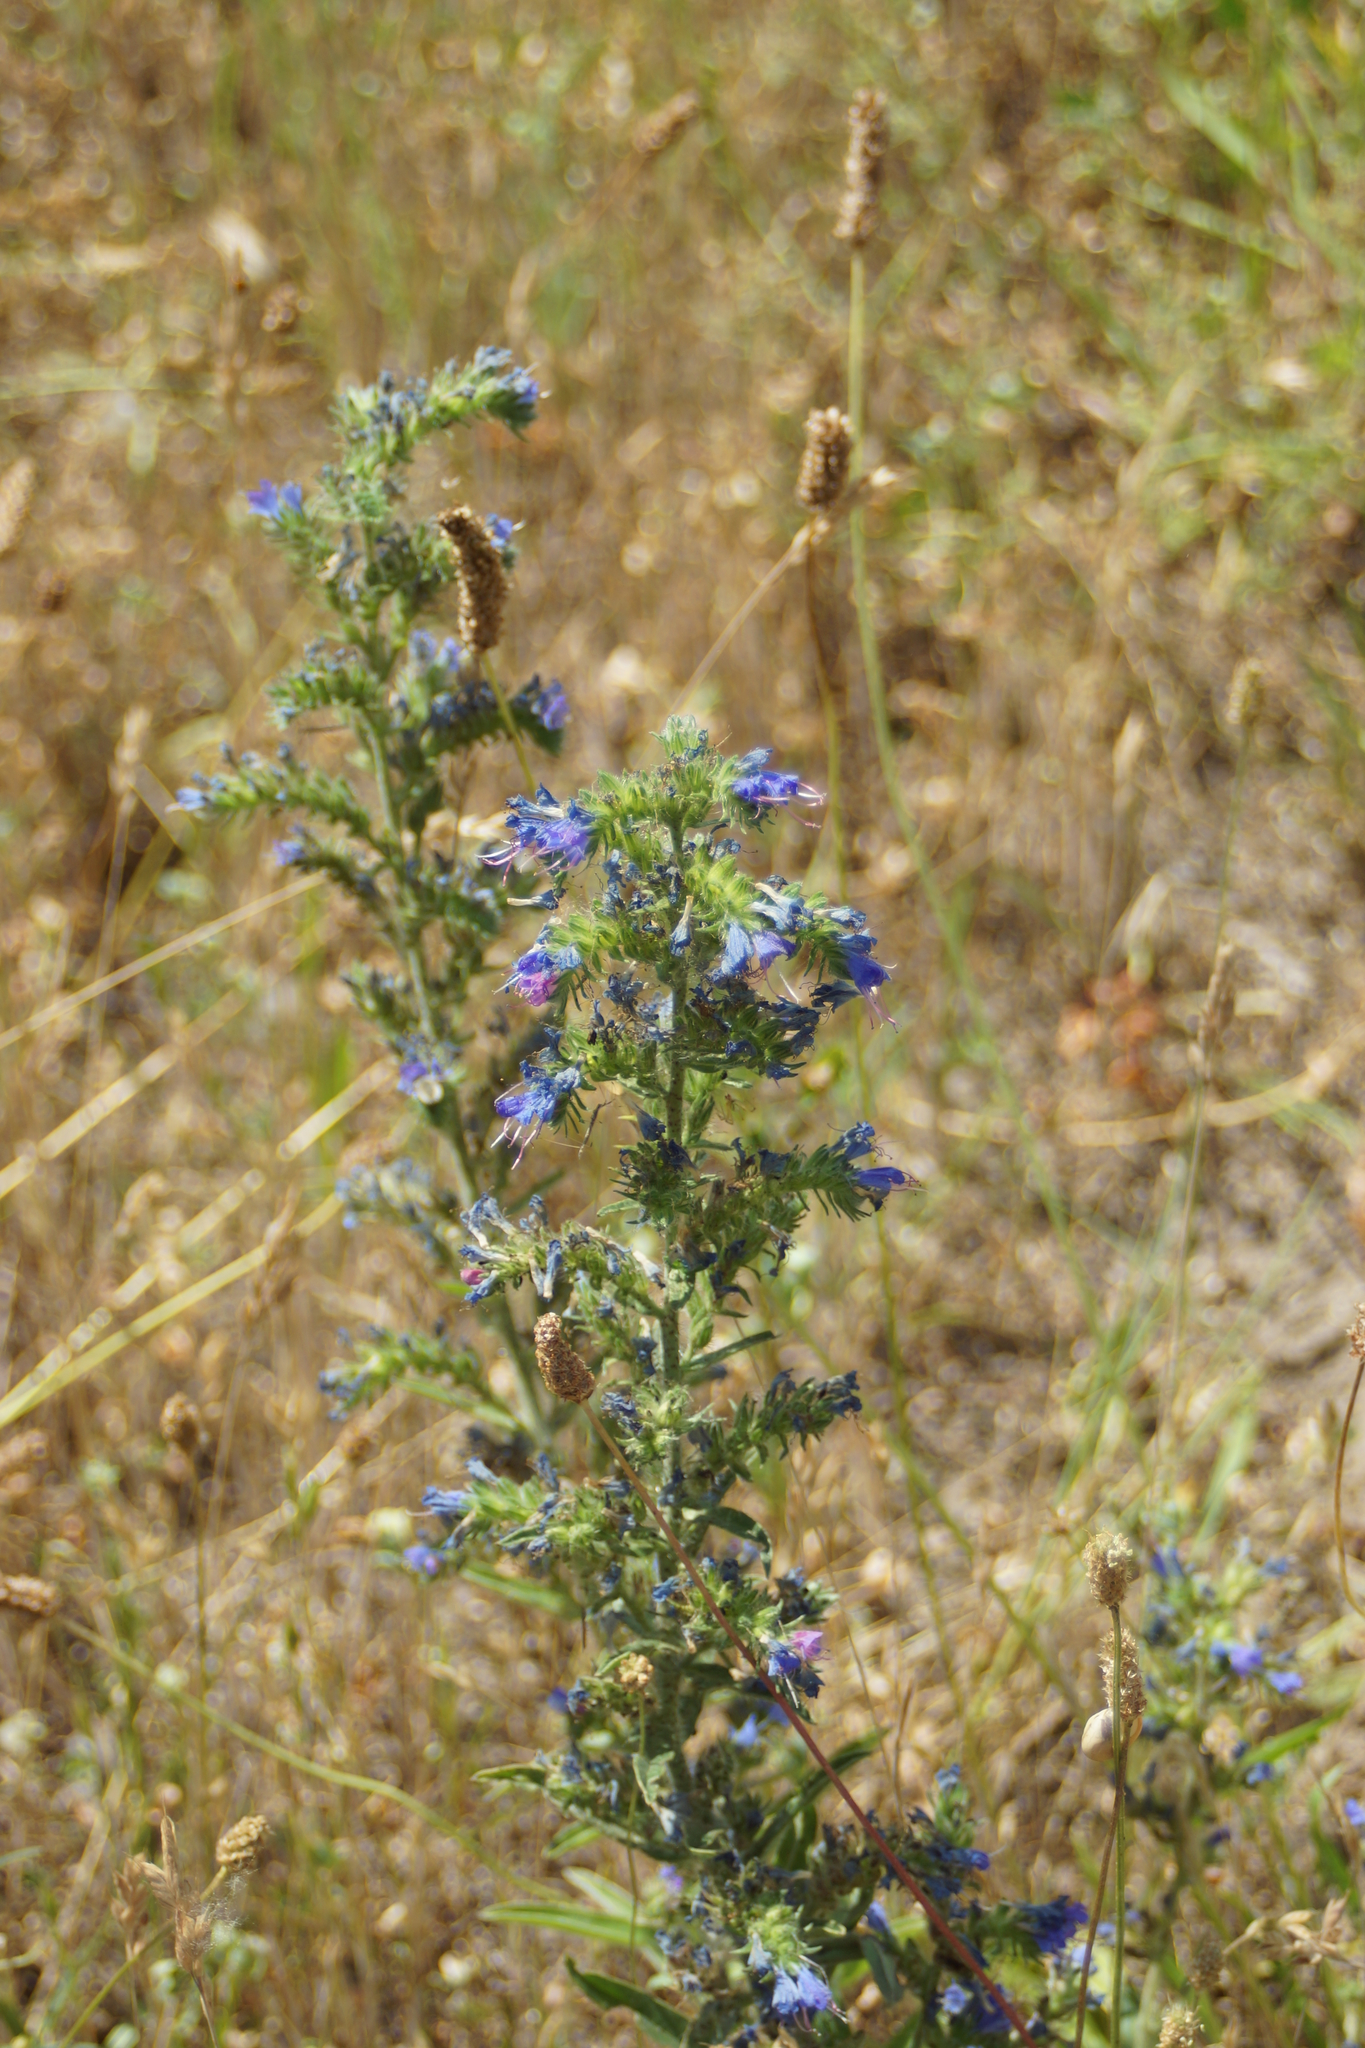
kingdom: Plantae
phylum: Tracheophyta
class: Magnoliopsida
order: Boraginales
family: Boraginaceae
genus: Echium
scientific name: Echium vulgare
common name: Common viper's bugloss
